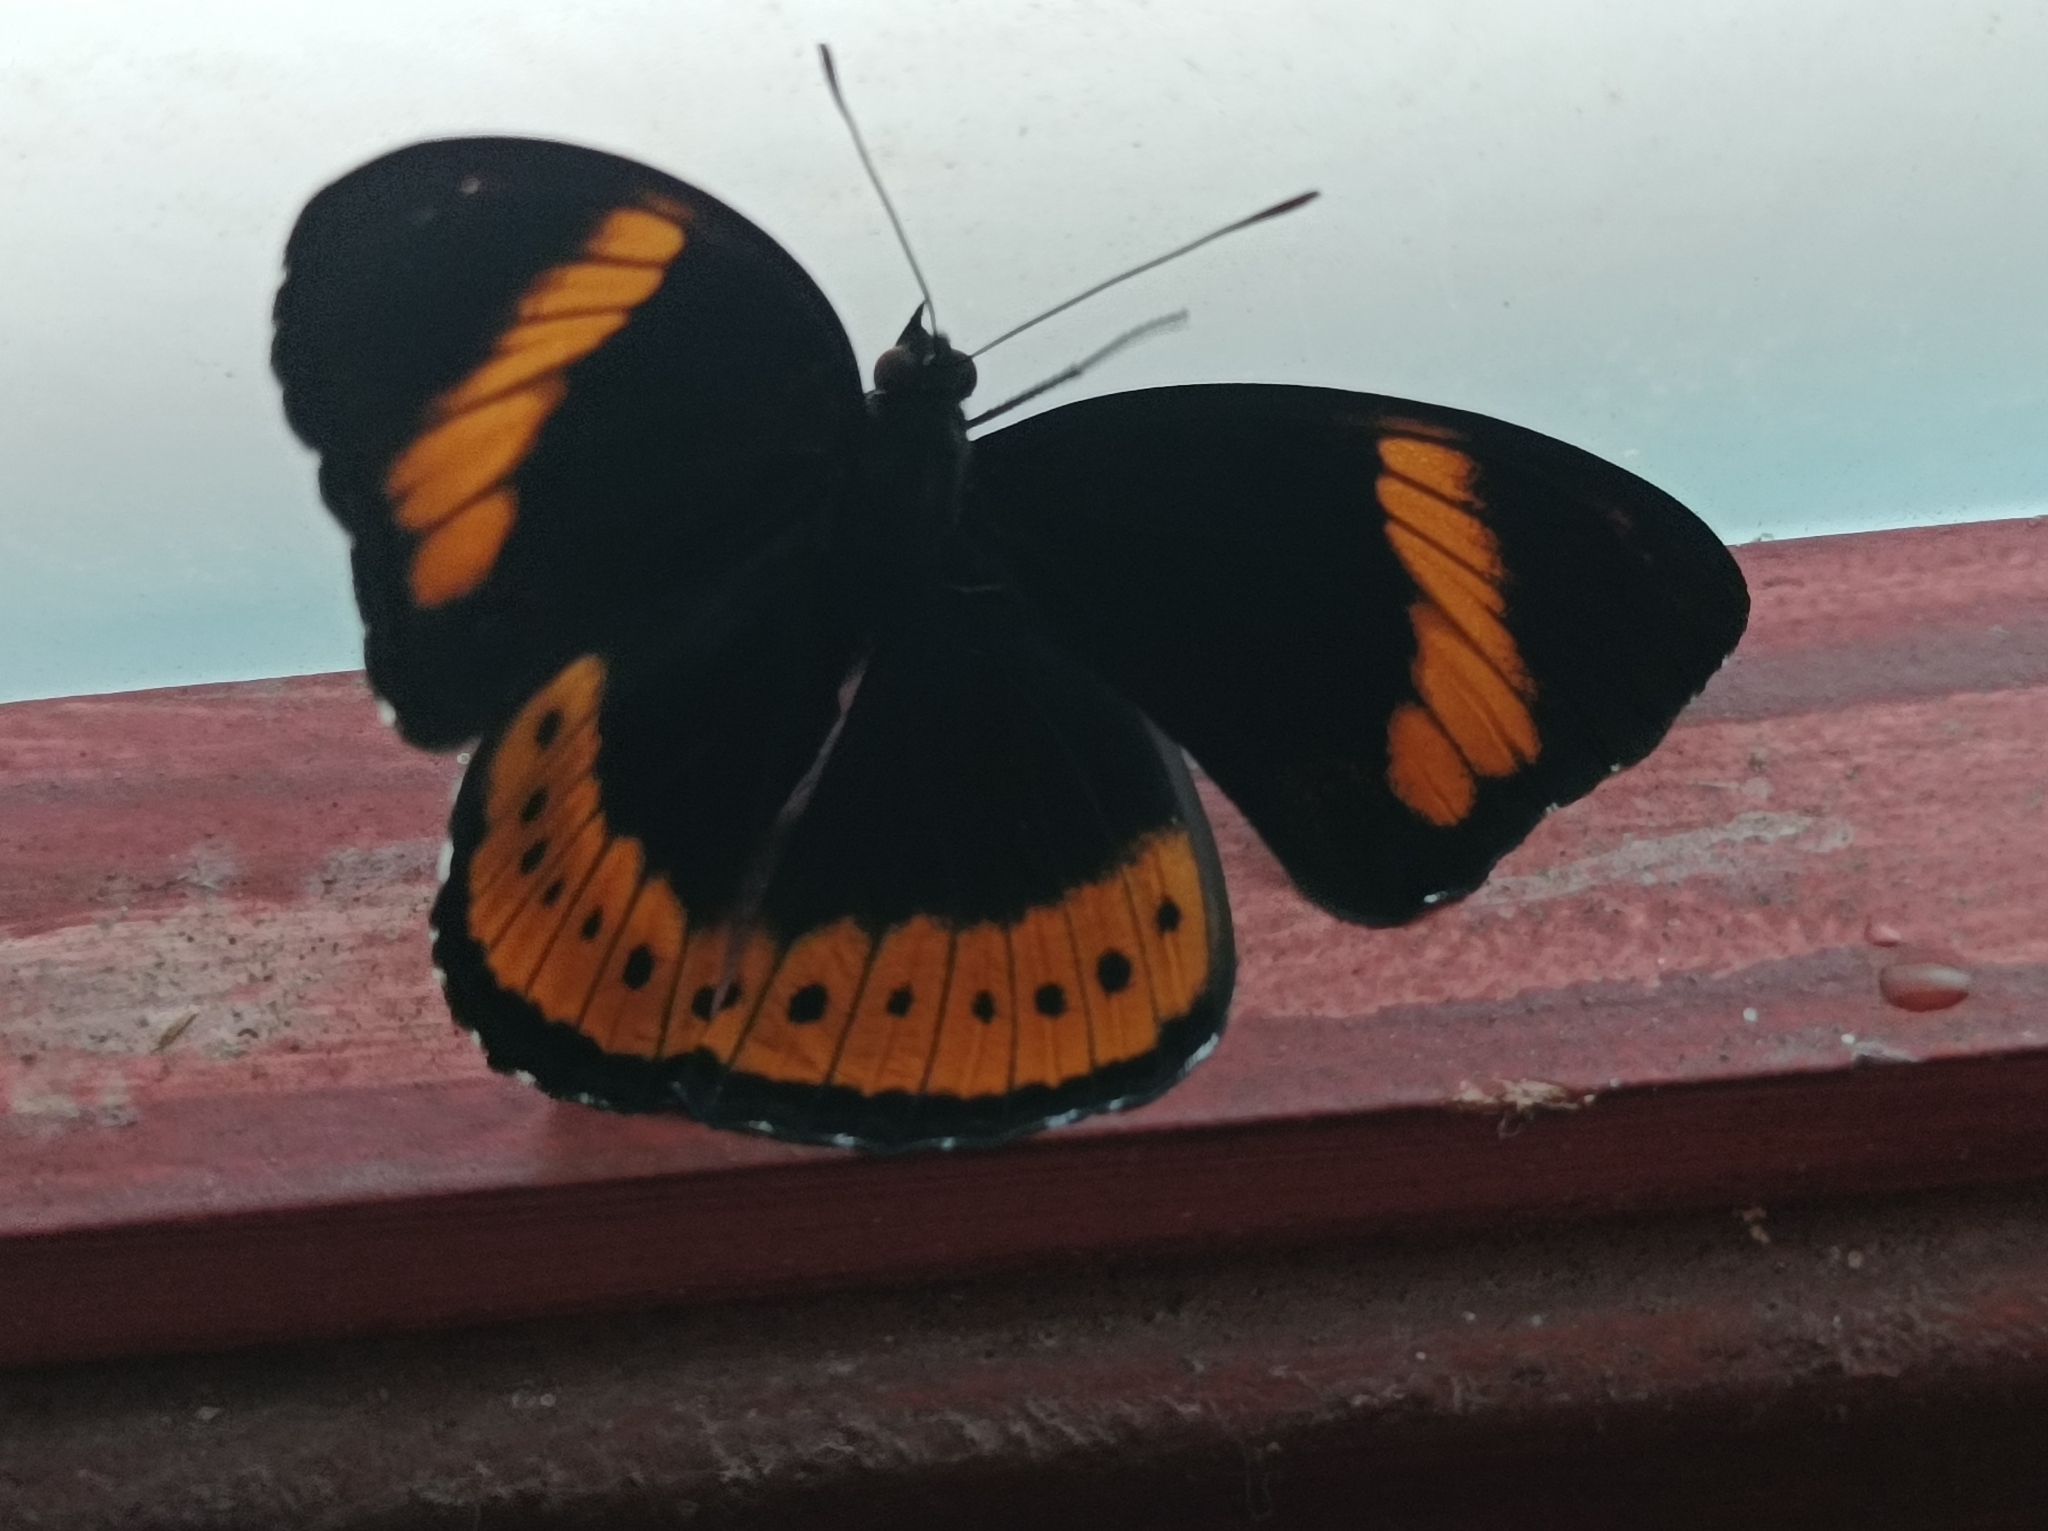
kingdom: Animalia
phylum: Arthropoda
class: Insecta
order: Lepidoptera
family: Nymphalidae
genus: Hypolimnas
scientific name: Hypolimnas octocula
